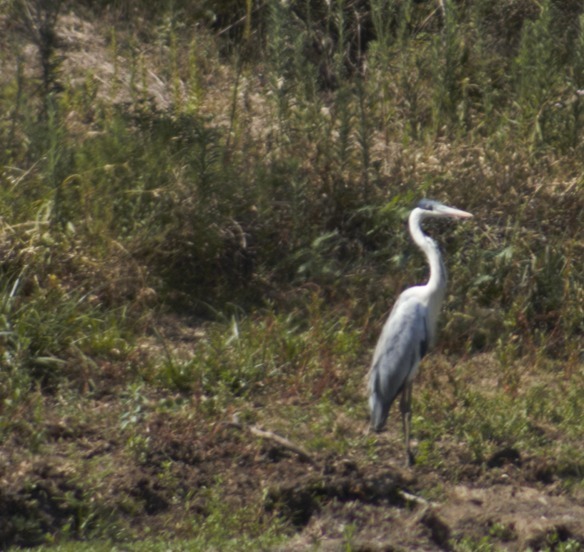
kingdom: Animalia
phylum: Chordata
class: Aves
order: Pelecaniformes
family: Ardeidae
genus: Ardea
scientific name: Ardea cocoi
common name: Cocoi heron
